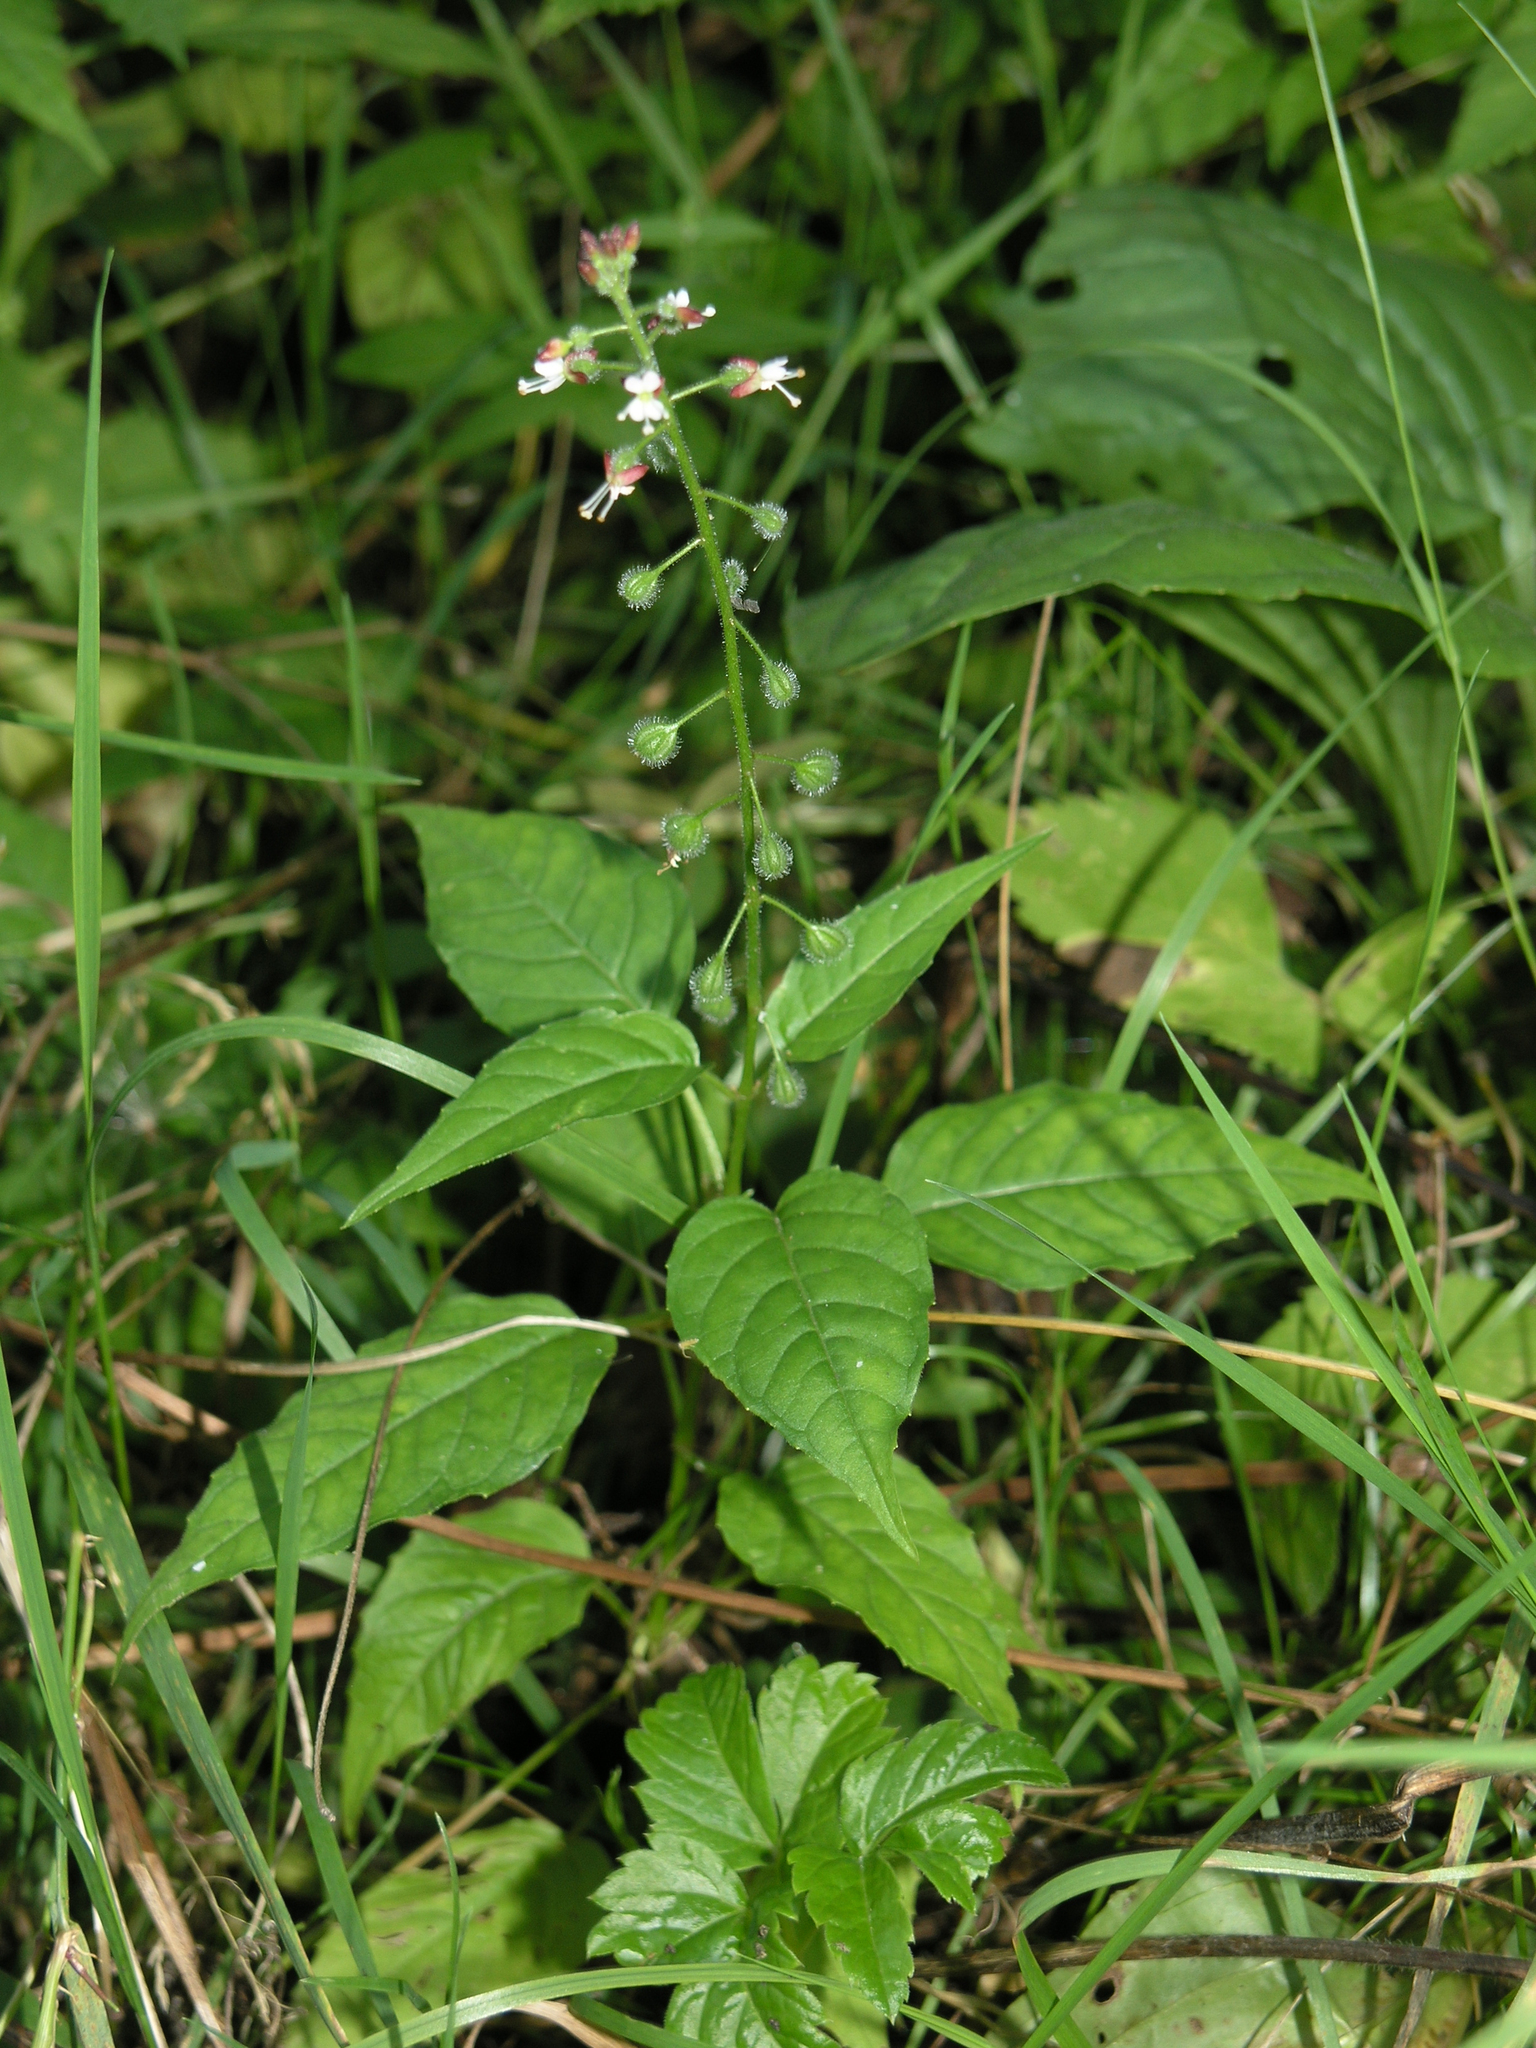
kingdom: Plantae
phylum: Tracheophyta
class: Magnoliopsida
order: Myrtales
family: Onagraceae
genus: Circaea
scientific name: Circaea lutetiana
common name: Enchanter's-nightshade
